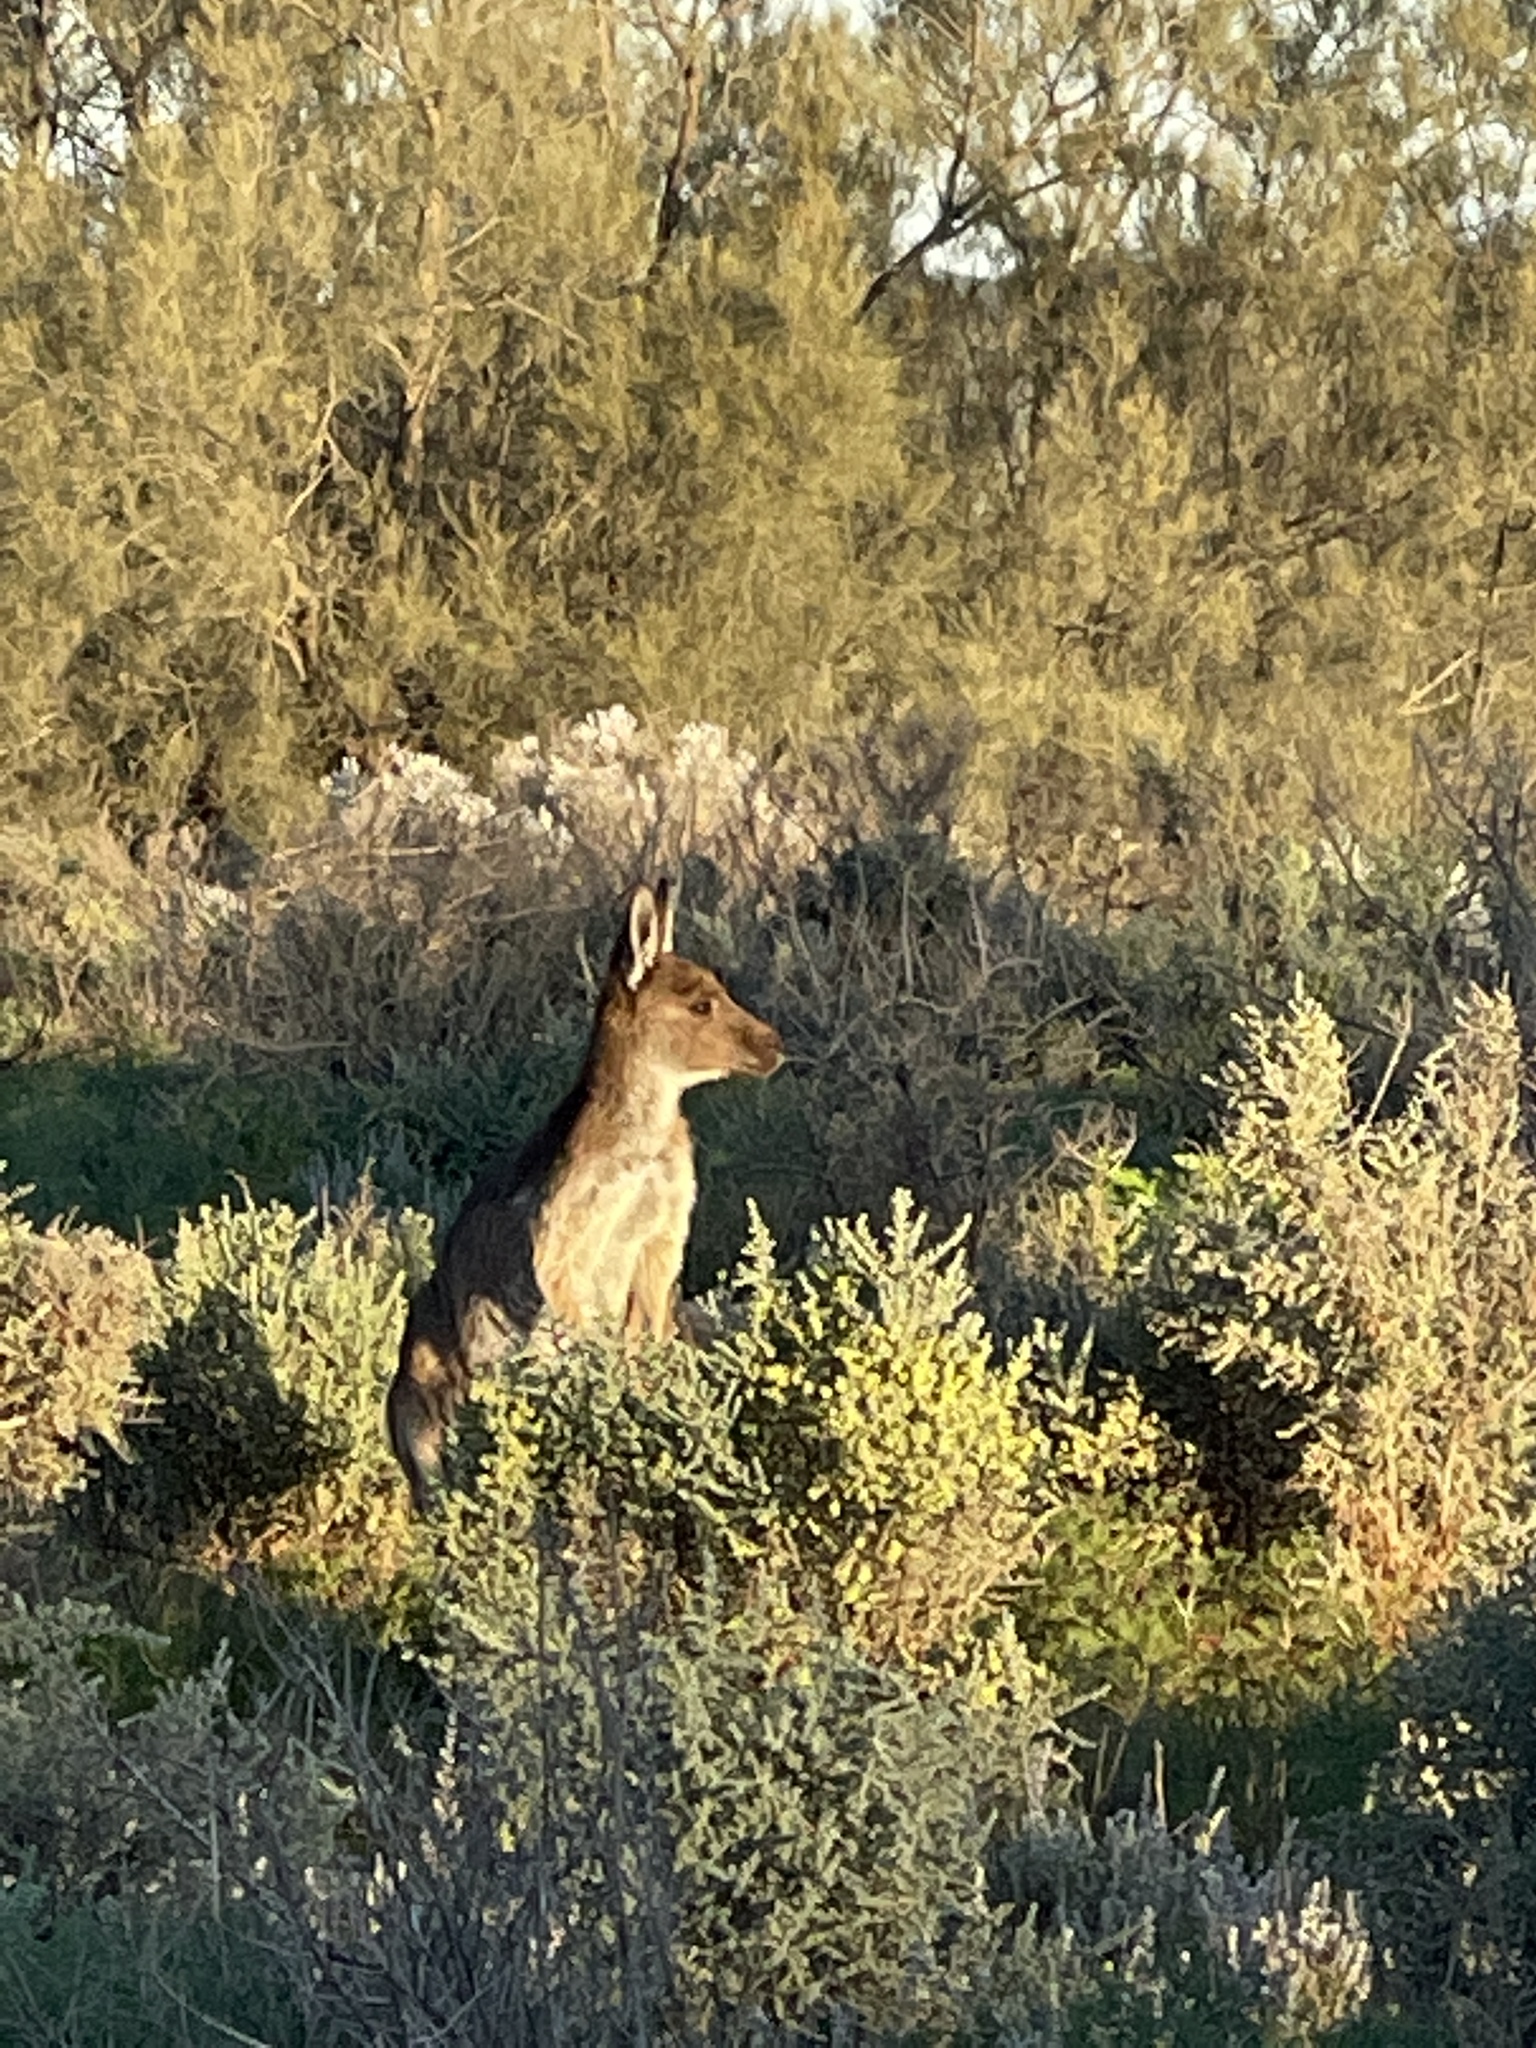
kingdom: Animalia
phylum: Chordata
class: Mammalia
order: Diprotodontia
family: Macropodidae
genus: Macropus
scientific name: Macropus fuliginosus
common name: Western grey kangaroo
